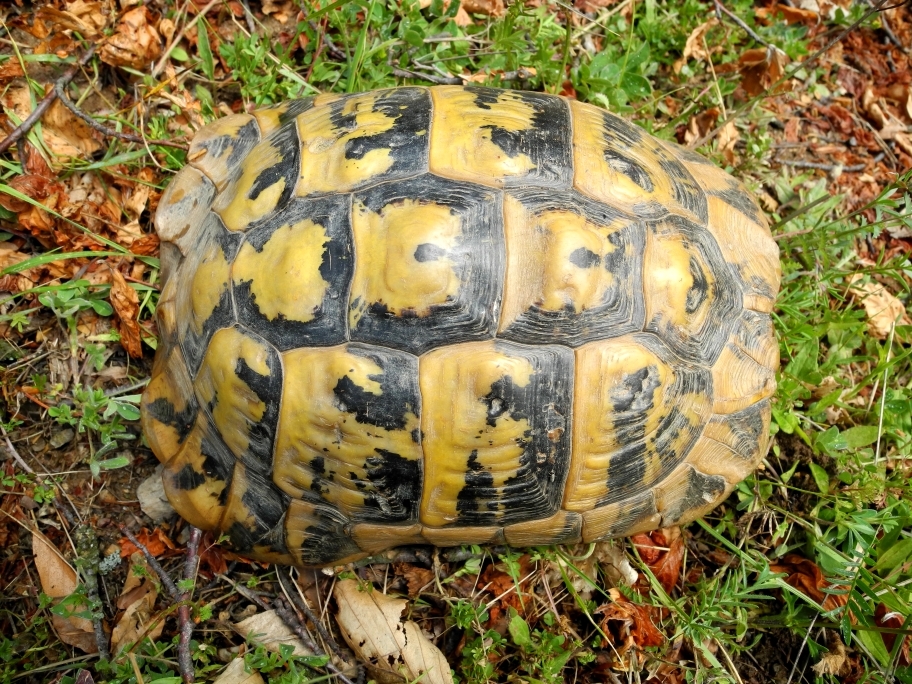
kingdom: Animalia
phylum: Chordata
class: Testudines
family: Testudinidae
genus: Testudo
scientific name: Testudo hermanni
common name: Hermann's tortoise
